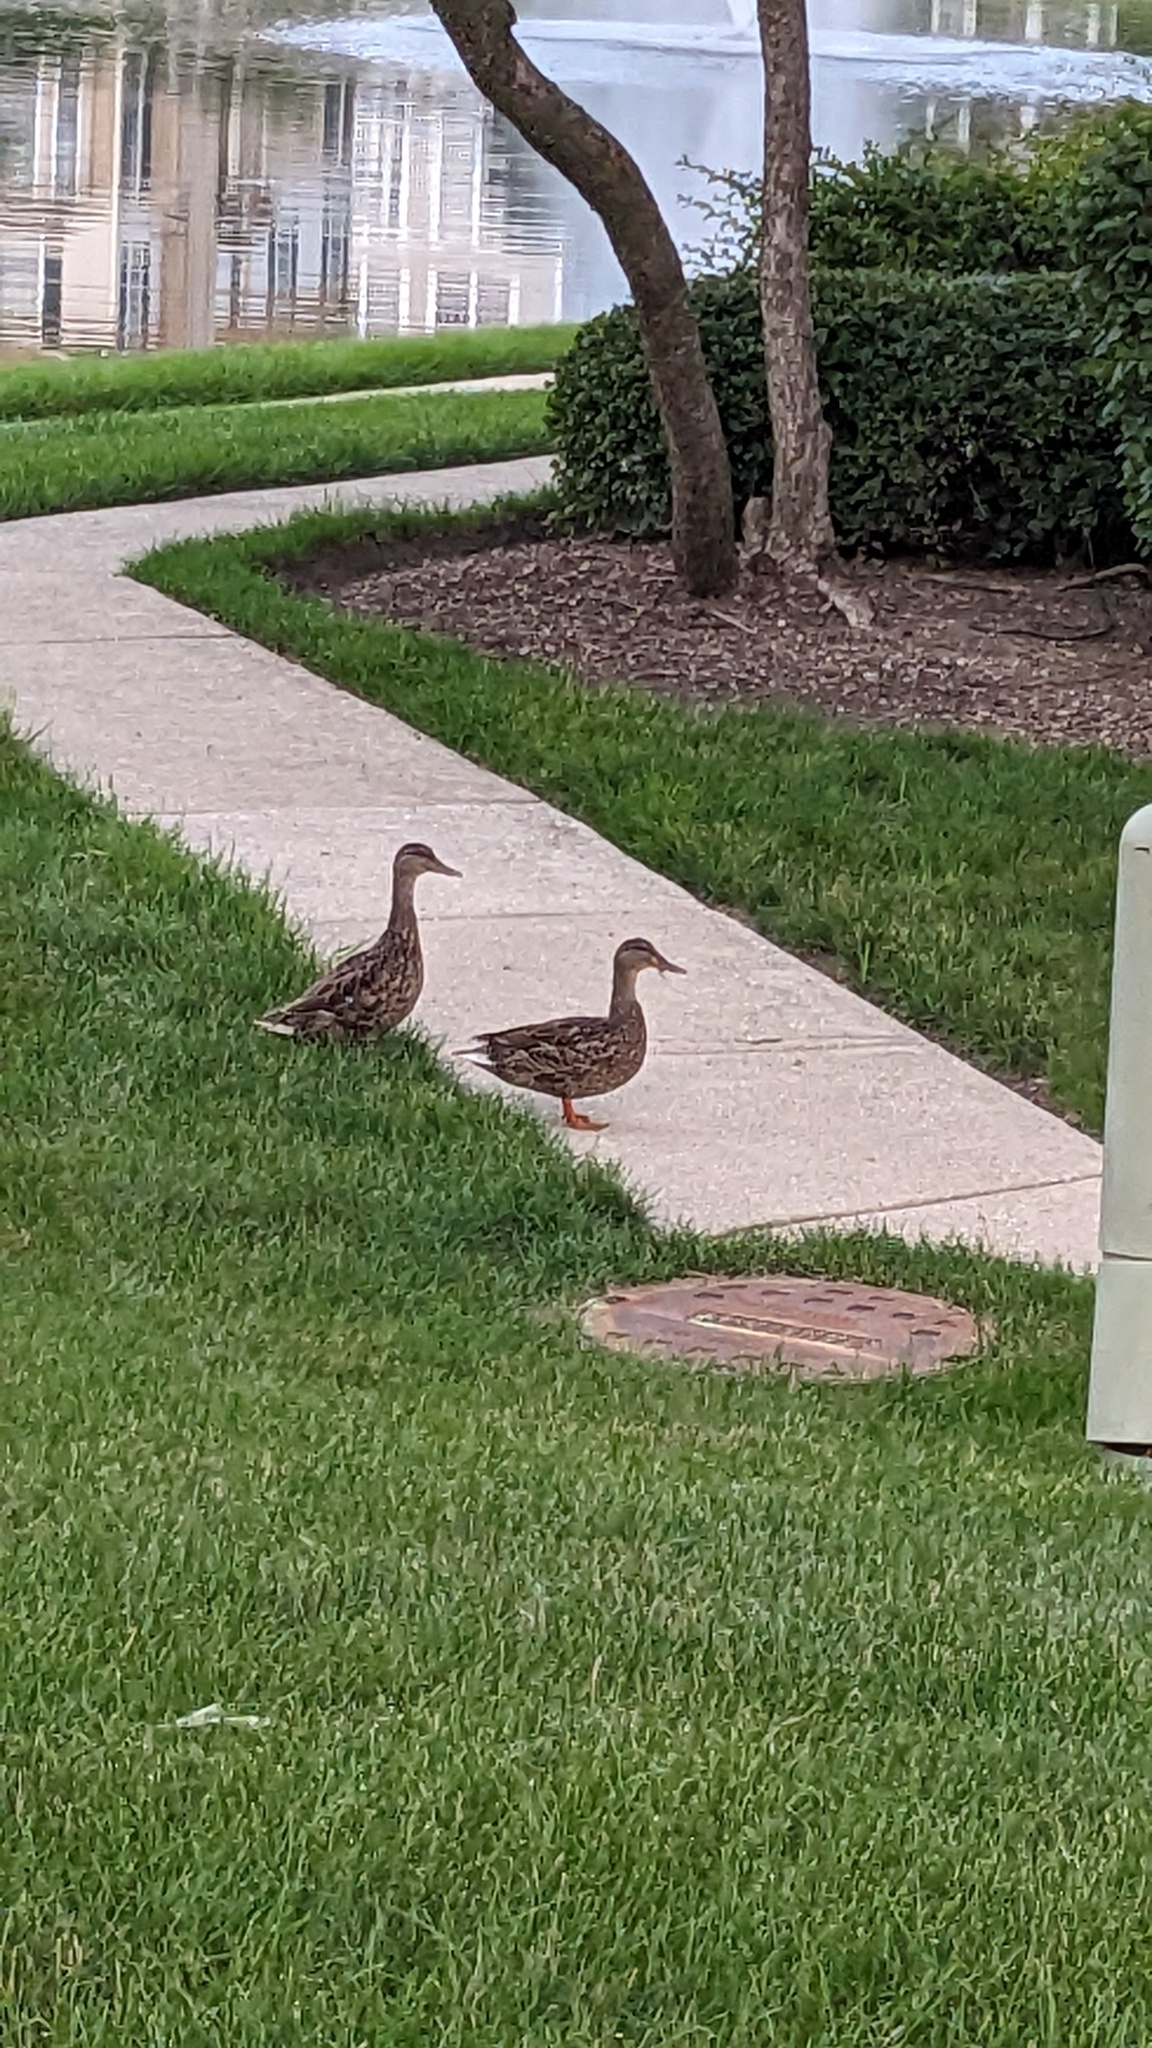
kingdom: Animalia
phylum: Chordata
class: Aves
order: Anseriformes
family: Anatidae
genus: Anas
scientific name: Anas platyrhynchos
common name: Mallard
